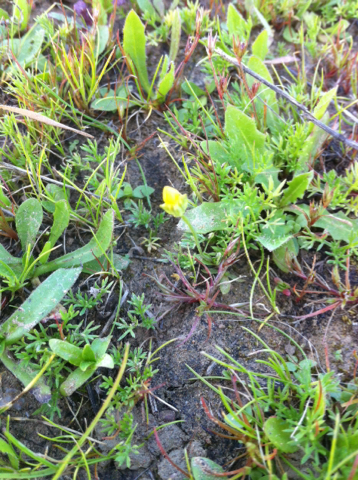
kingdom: Plantae
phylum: Tracheophyta
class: Magnoliopsida
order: Gentianales
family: Gentianaceae
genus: Microcala
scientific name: Microcala quadrangularis
